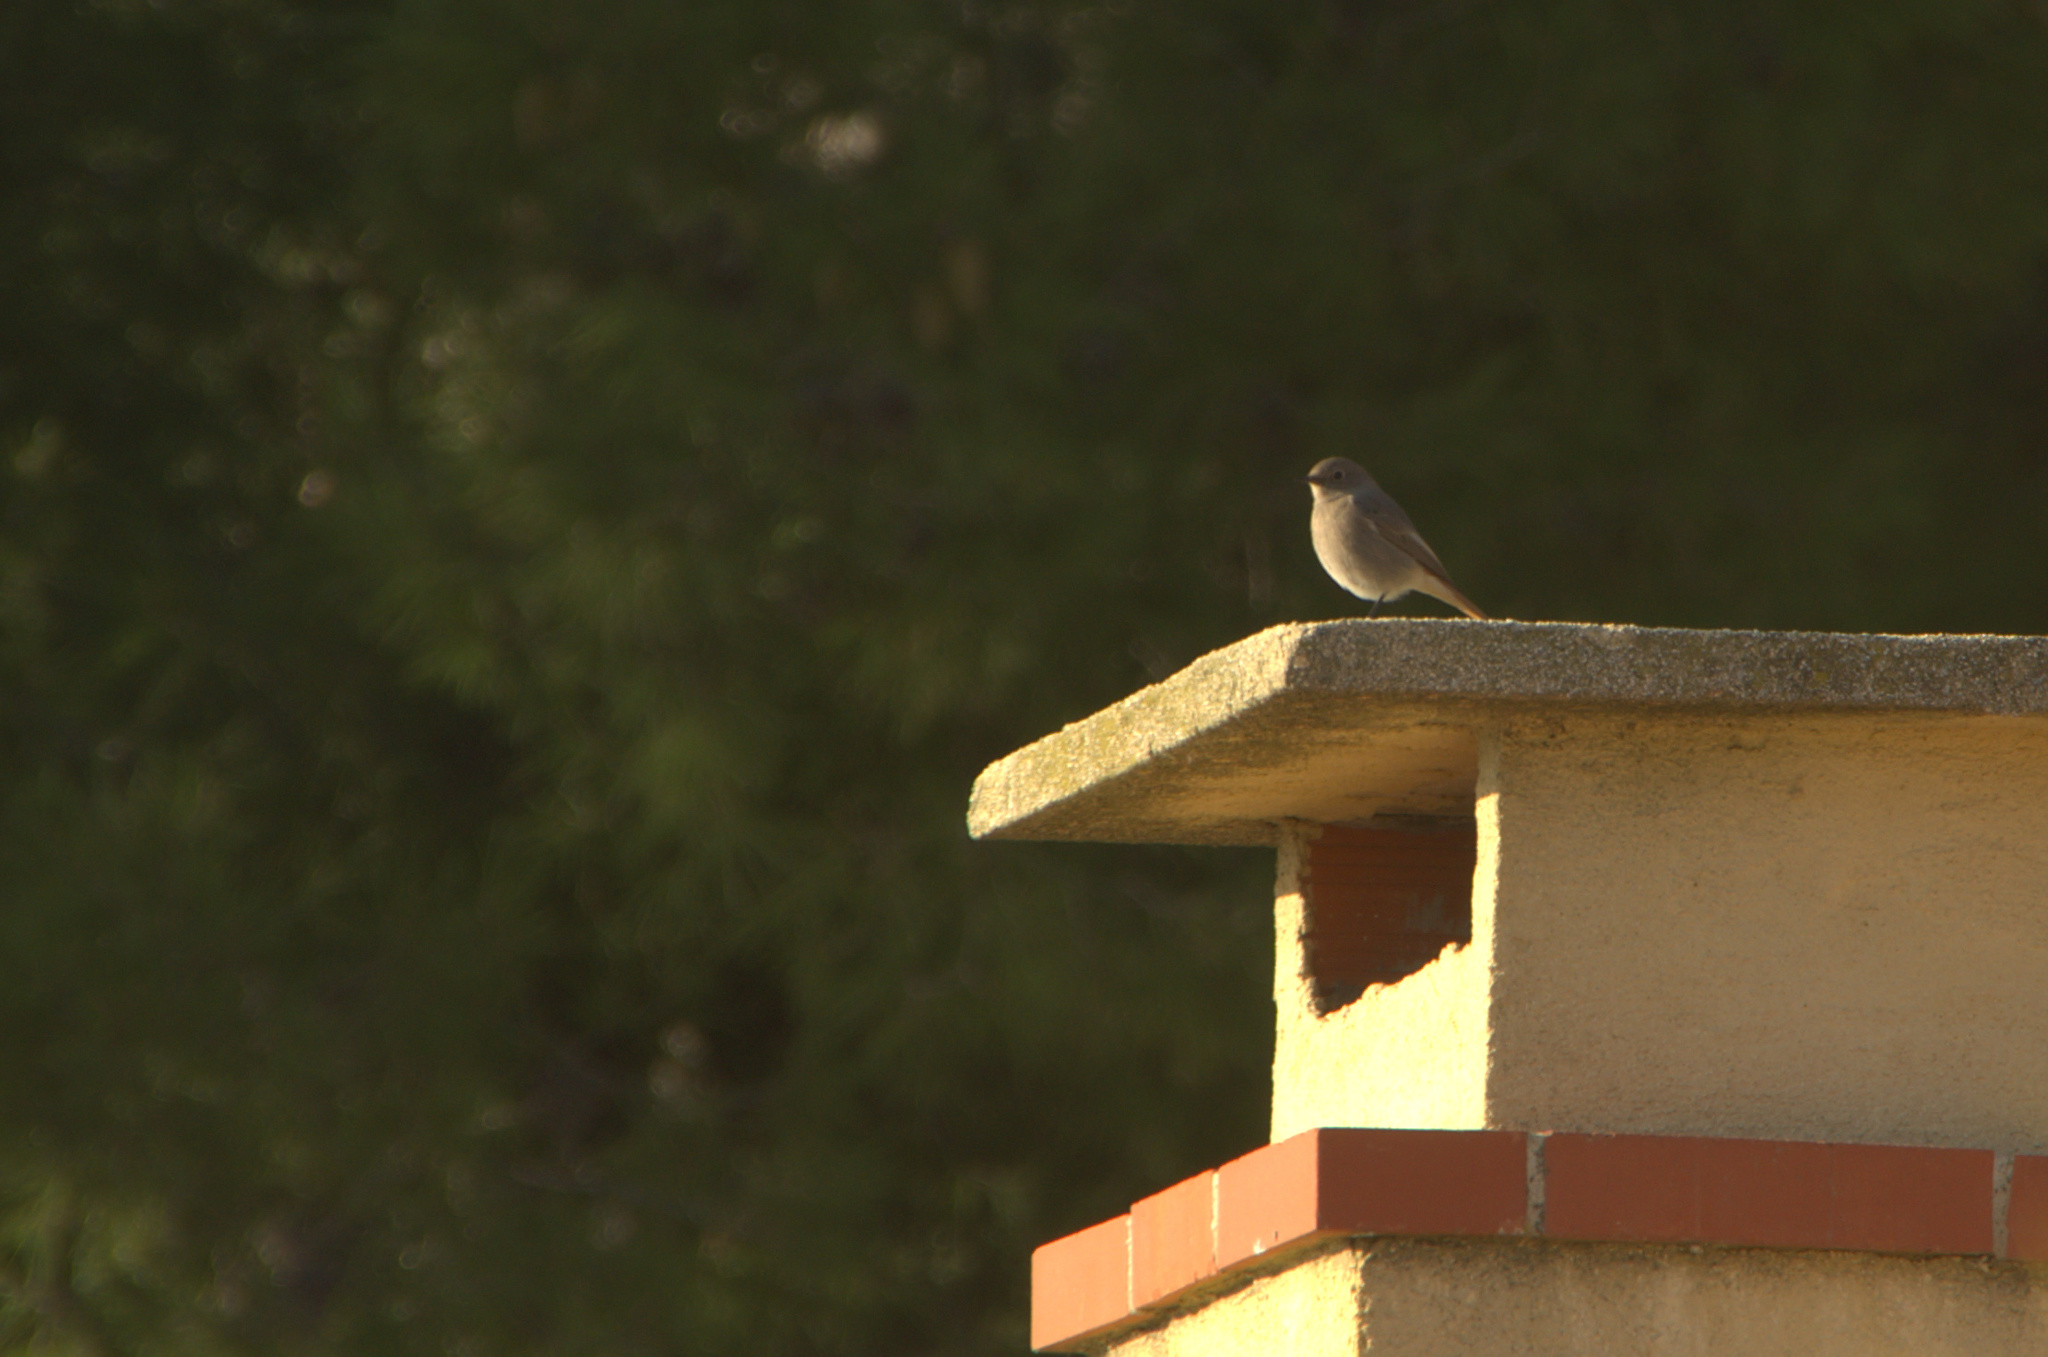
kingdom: Animalia
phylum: Chordata
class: Aves
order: Passeriformes
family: Muscicapidae
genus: Phoenicurus
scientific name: Phoenicurus ochruros
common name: Black redstart
